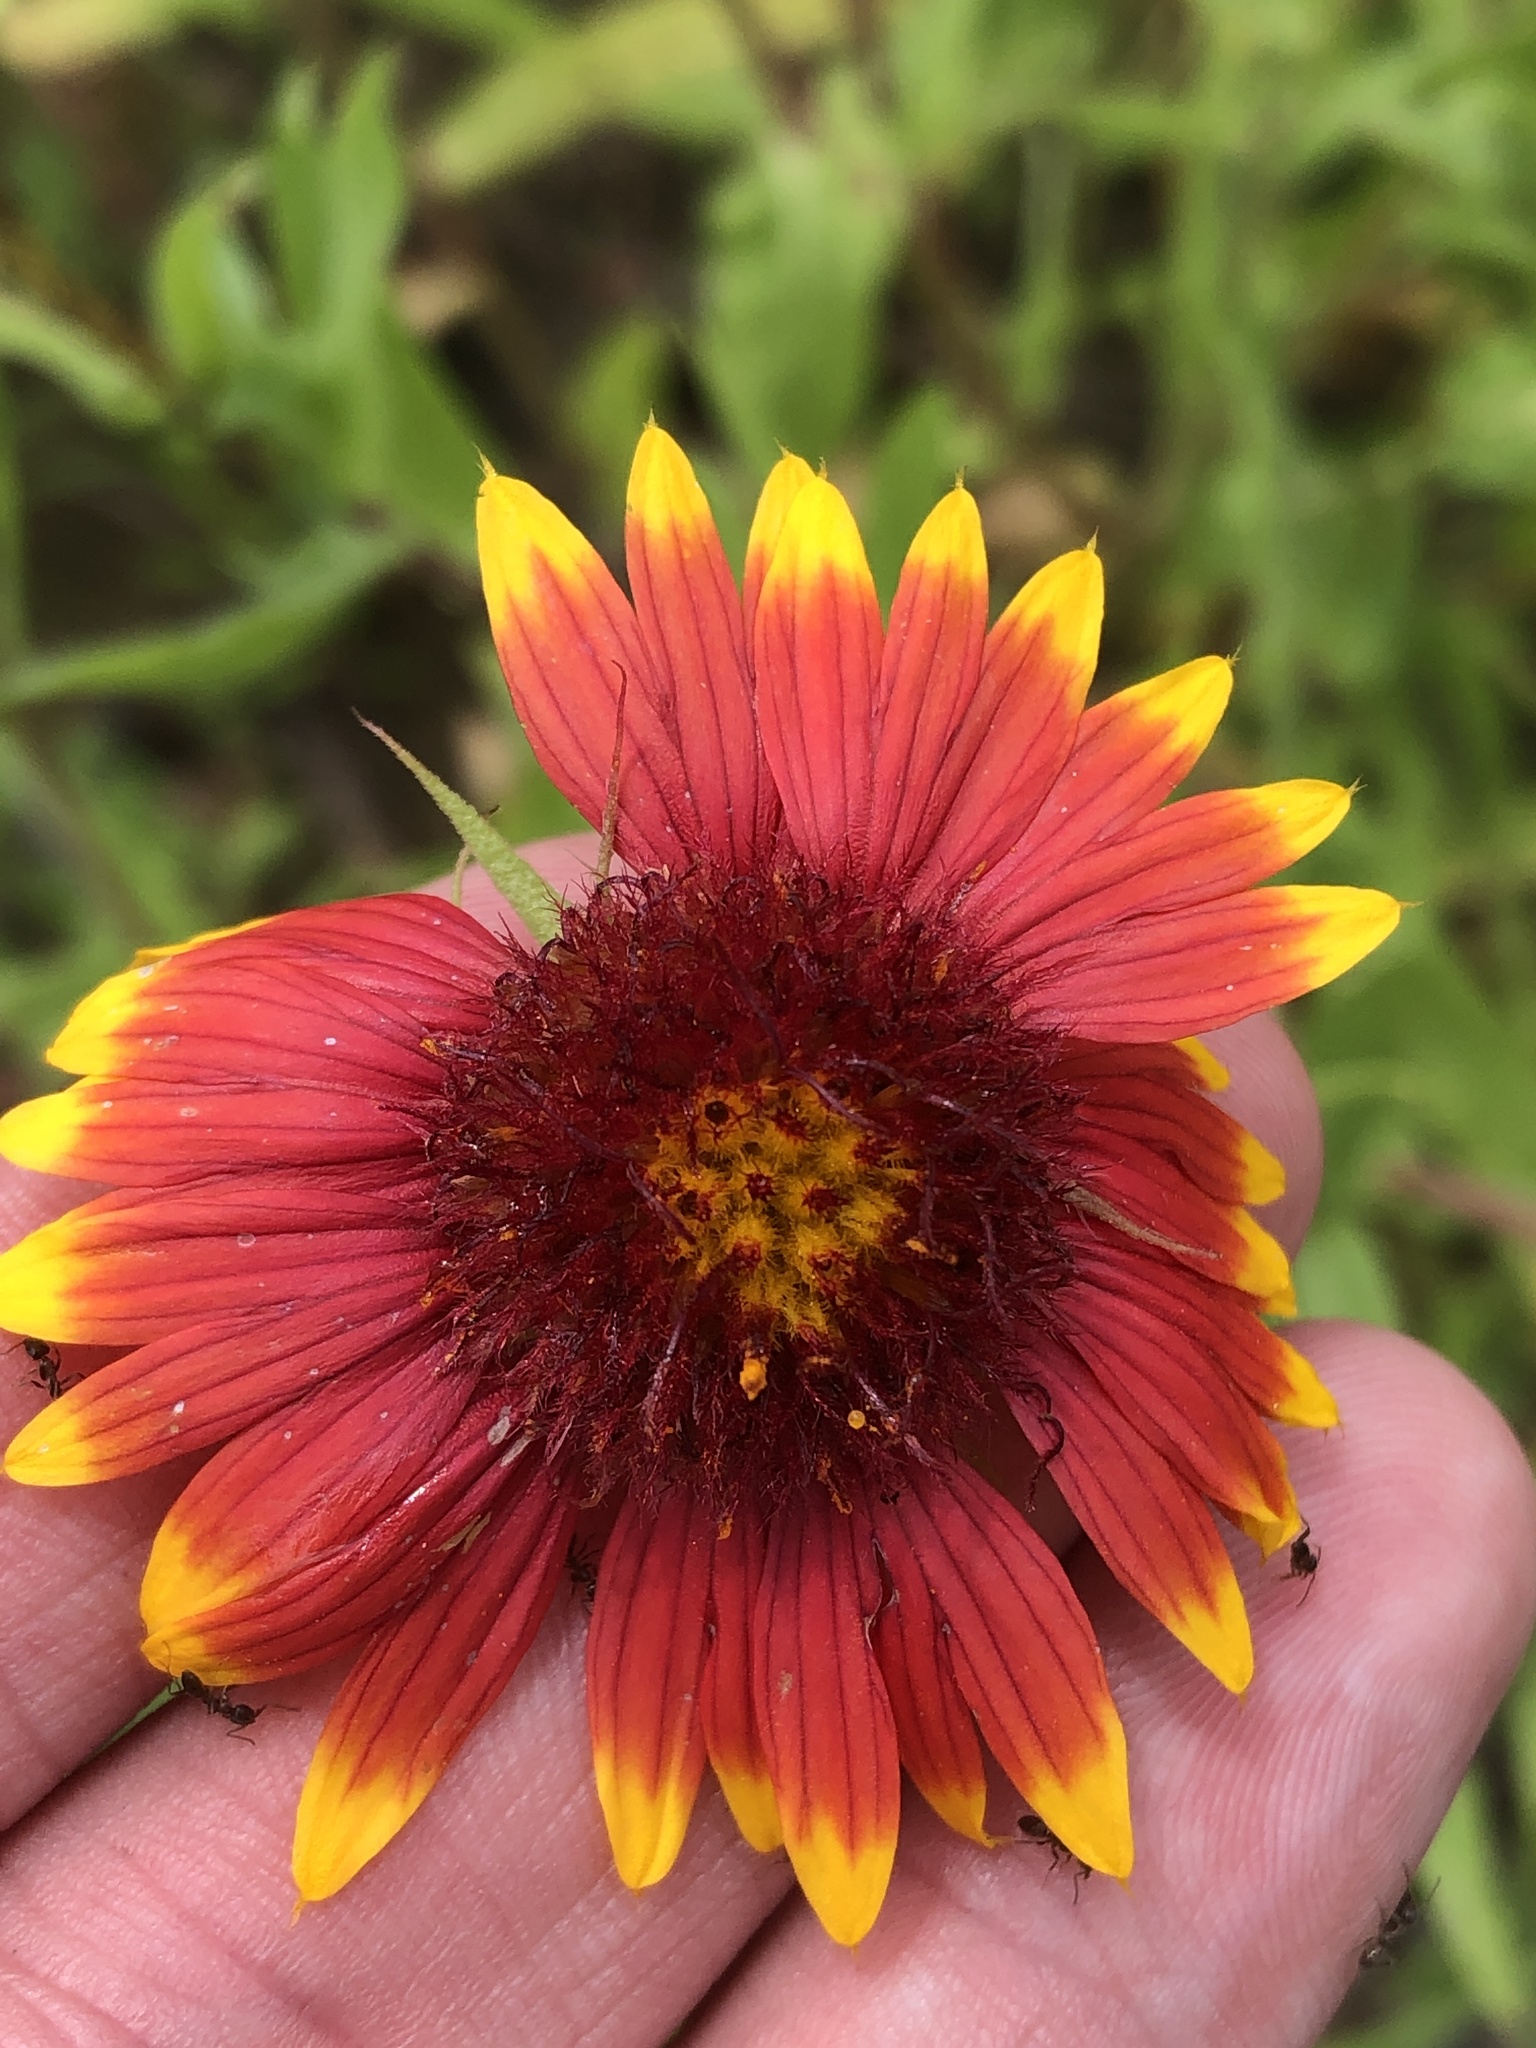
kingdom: Plantae
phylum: Tracheophyta
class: Magnoliopsida
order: Asterales
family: Asteraceae
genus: Gaillardia
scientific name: Gaillardia pulchella
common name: Firewheel
